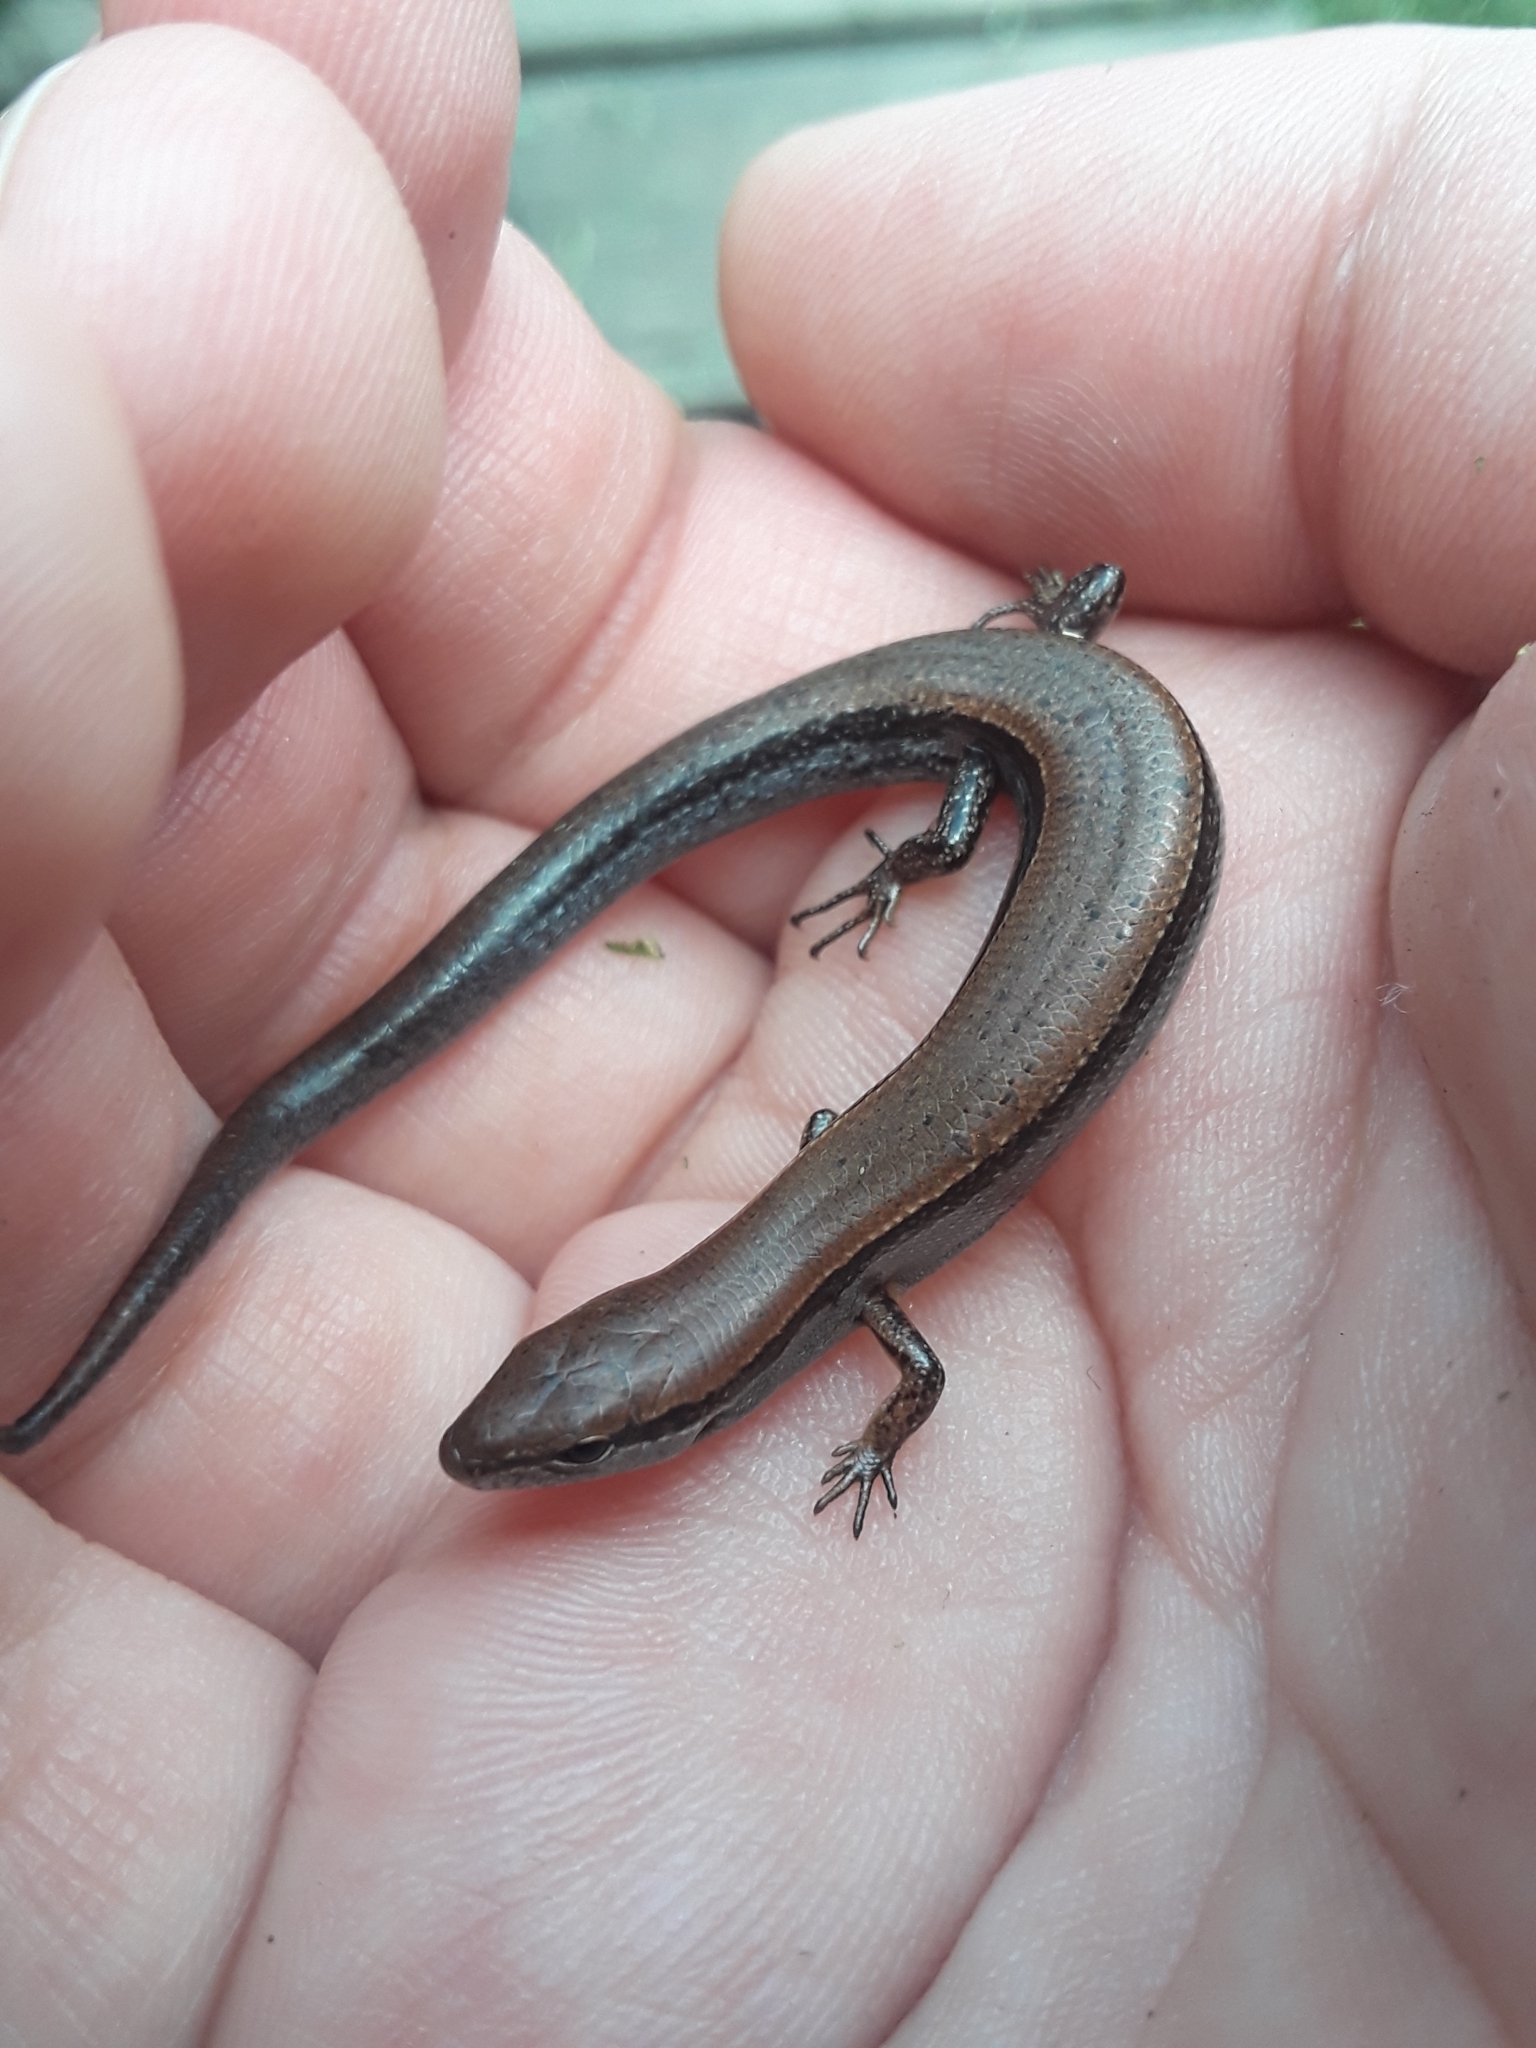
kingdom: Animalia
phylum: Chordata
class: Squamata
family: Scincidae
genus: Scincella
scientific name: Scincella lateralis
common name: Ground skink
